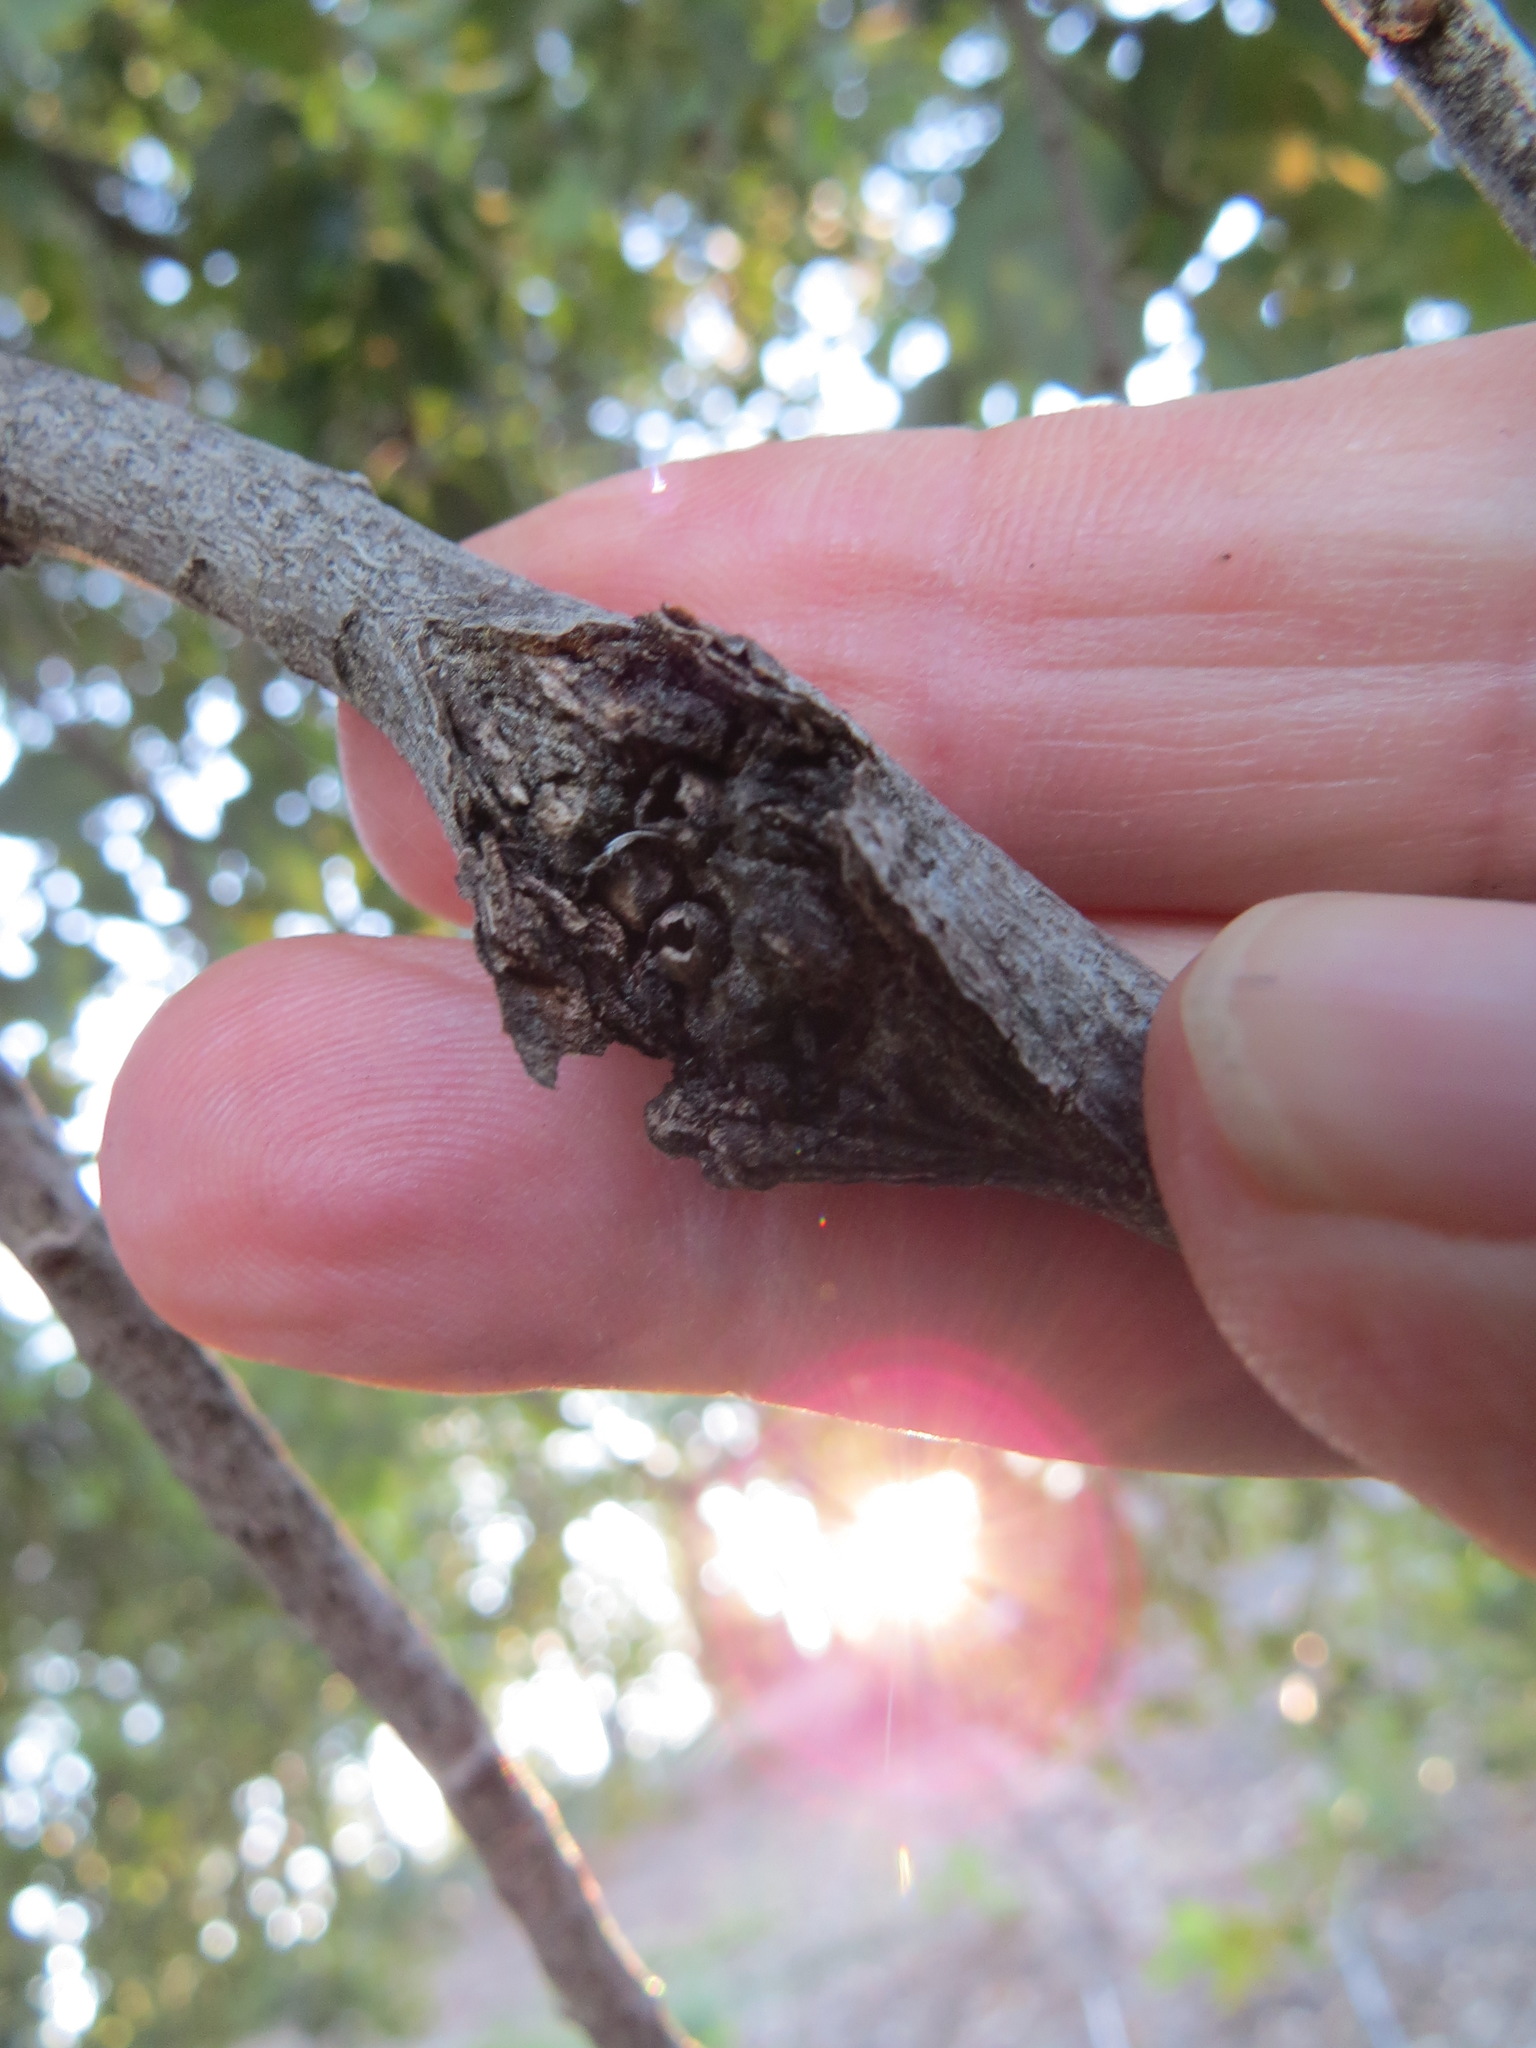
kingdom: Animalia
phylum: Arthropoda
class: Insecta
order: Hymenoptera
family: Cynipidae
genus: Dryocosmus
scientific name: Dryocosmus
